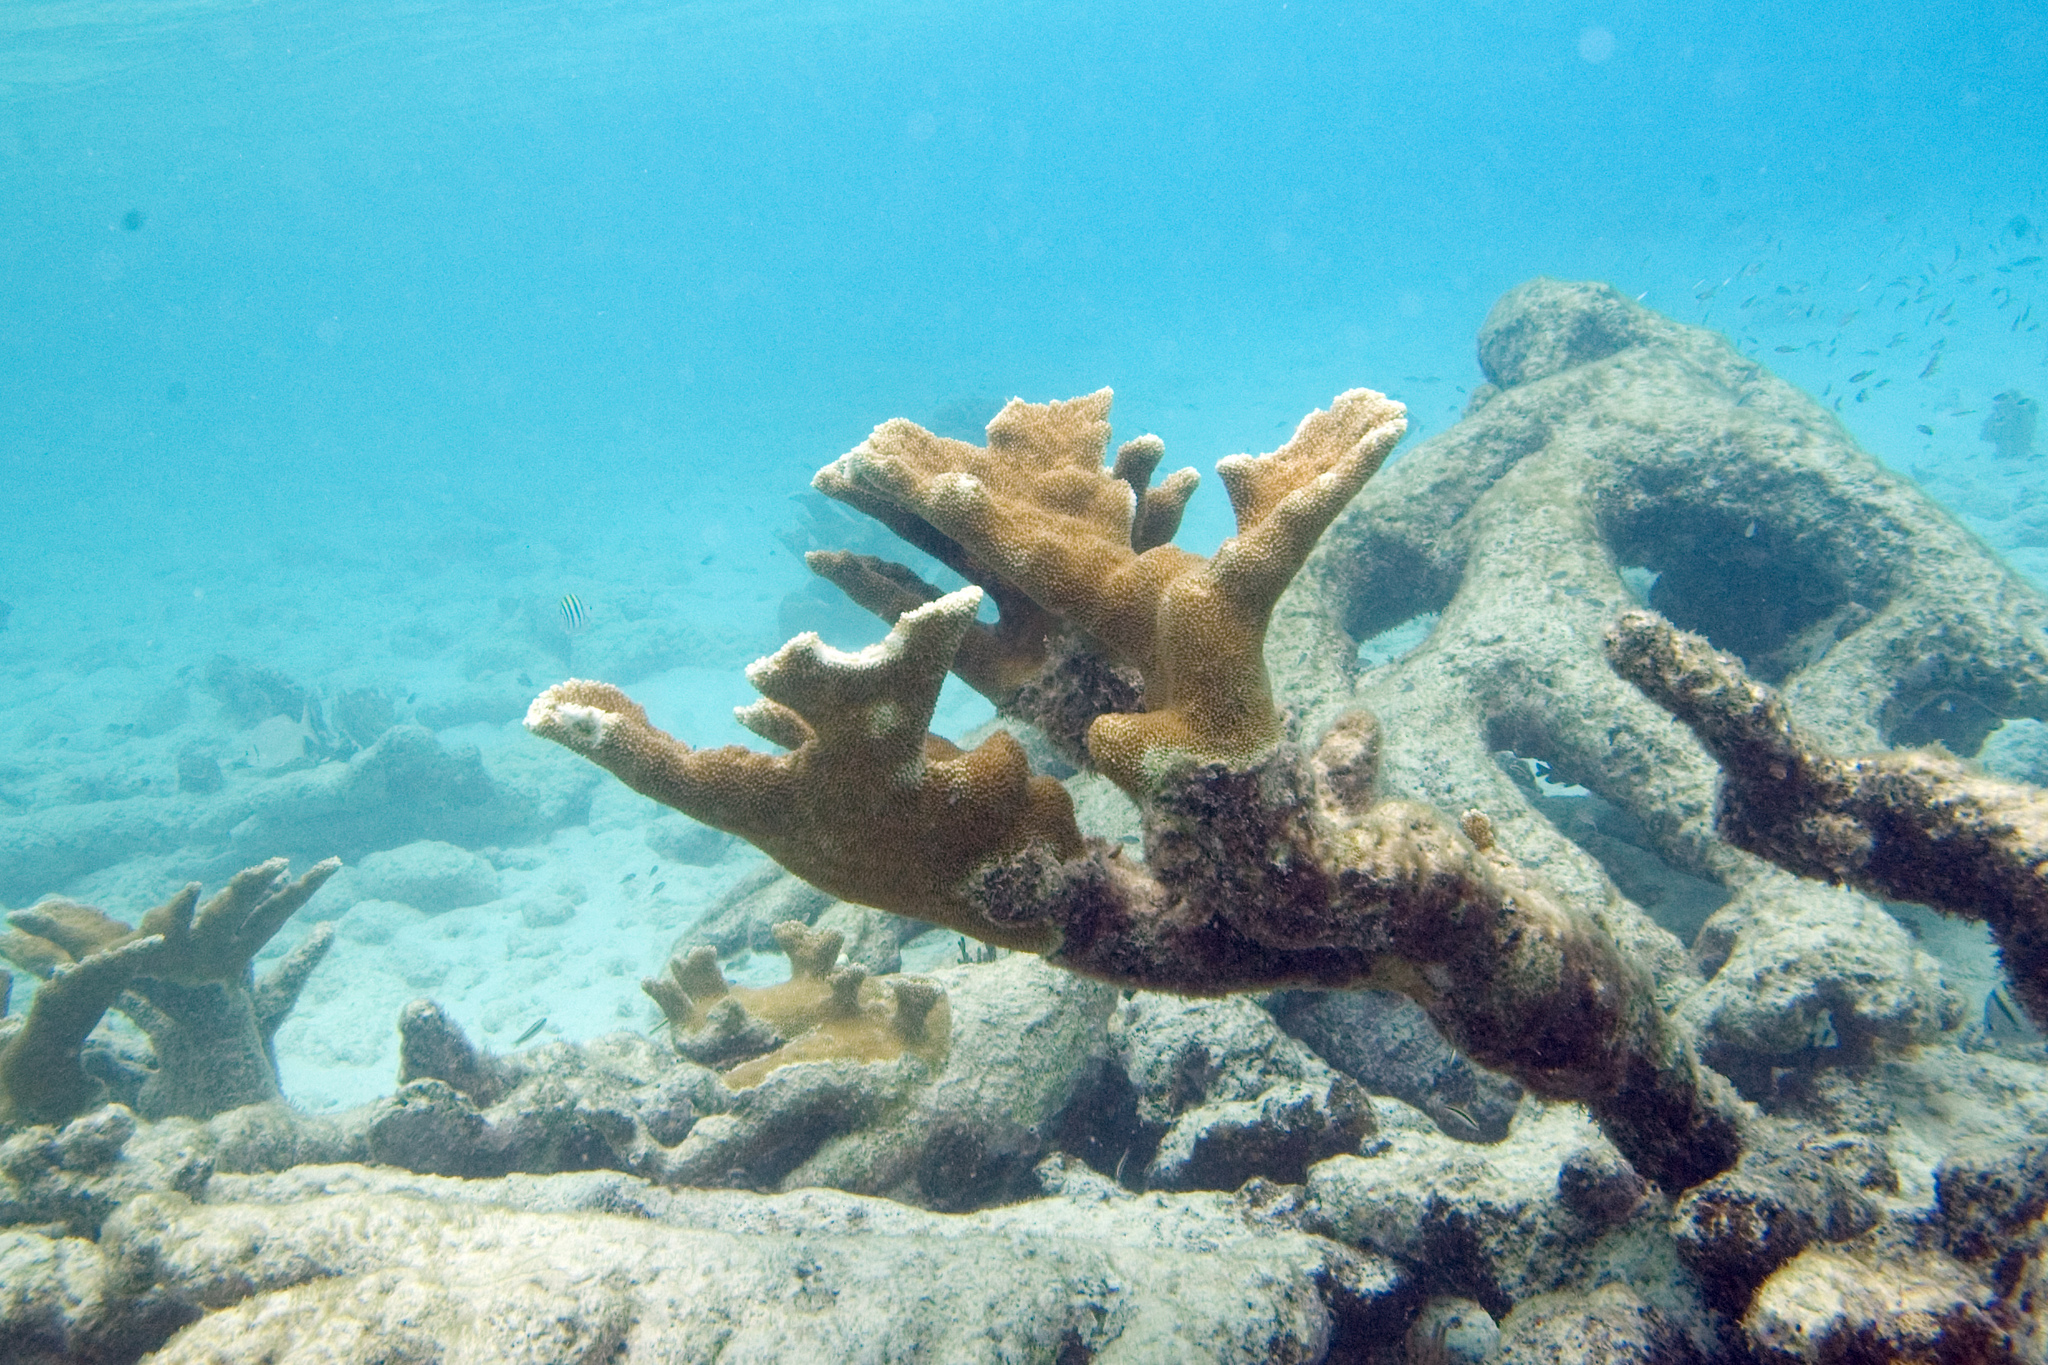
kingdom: Animalia
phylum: Cnidaria
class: Anthozoa
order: Scleractinia
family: Acroporidae
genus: Acropora
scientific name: Acropora palmata
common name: Elkhorn coral
